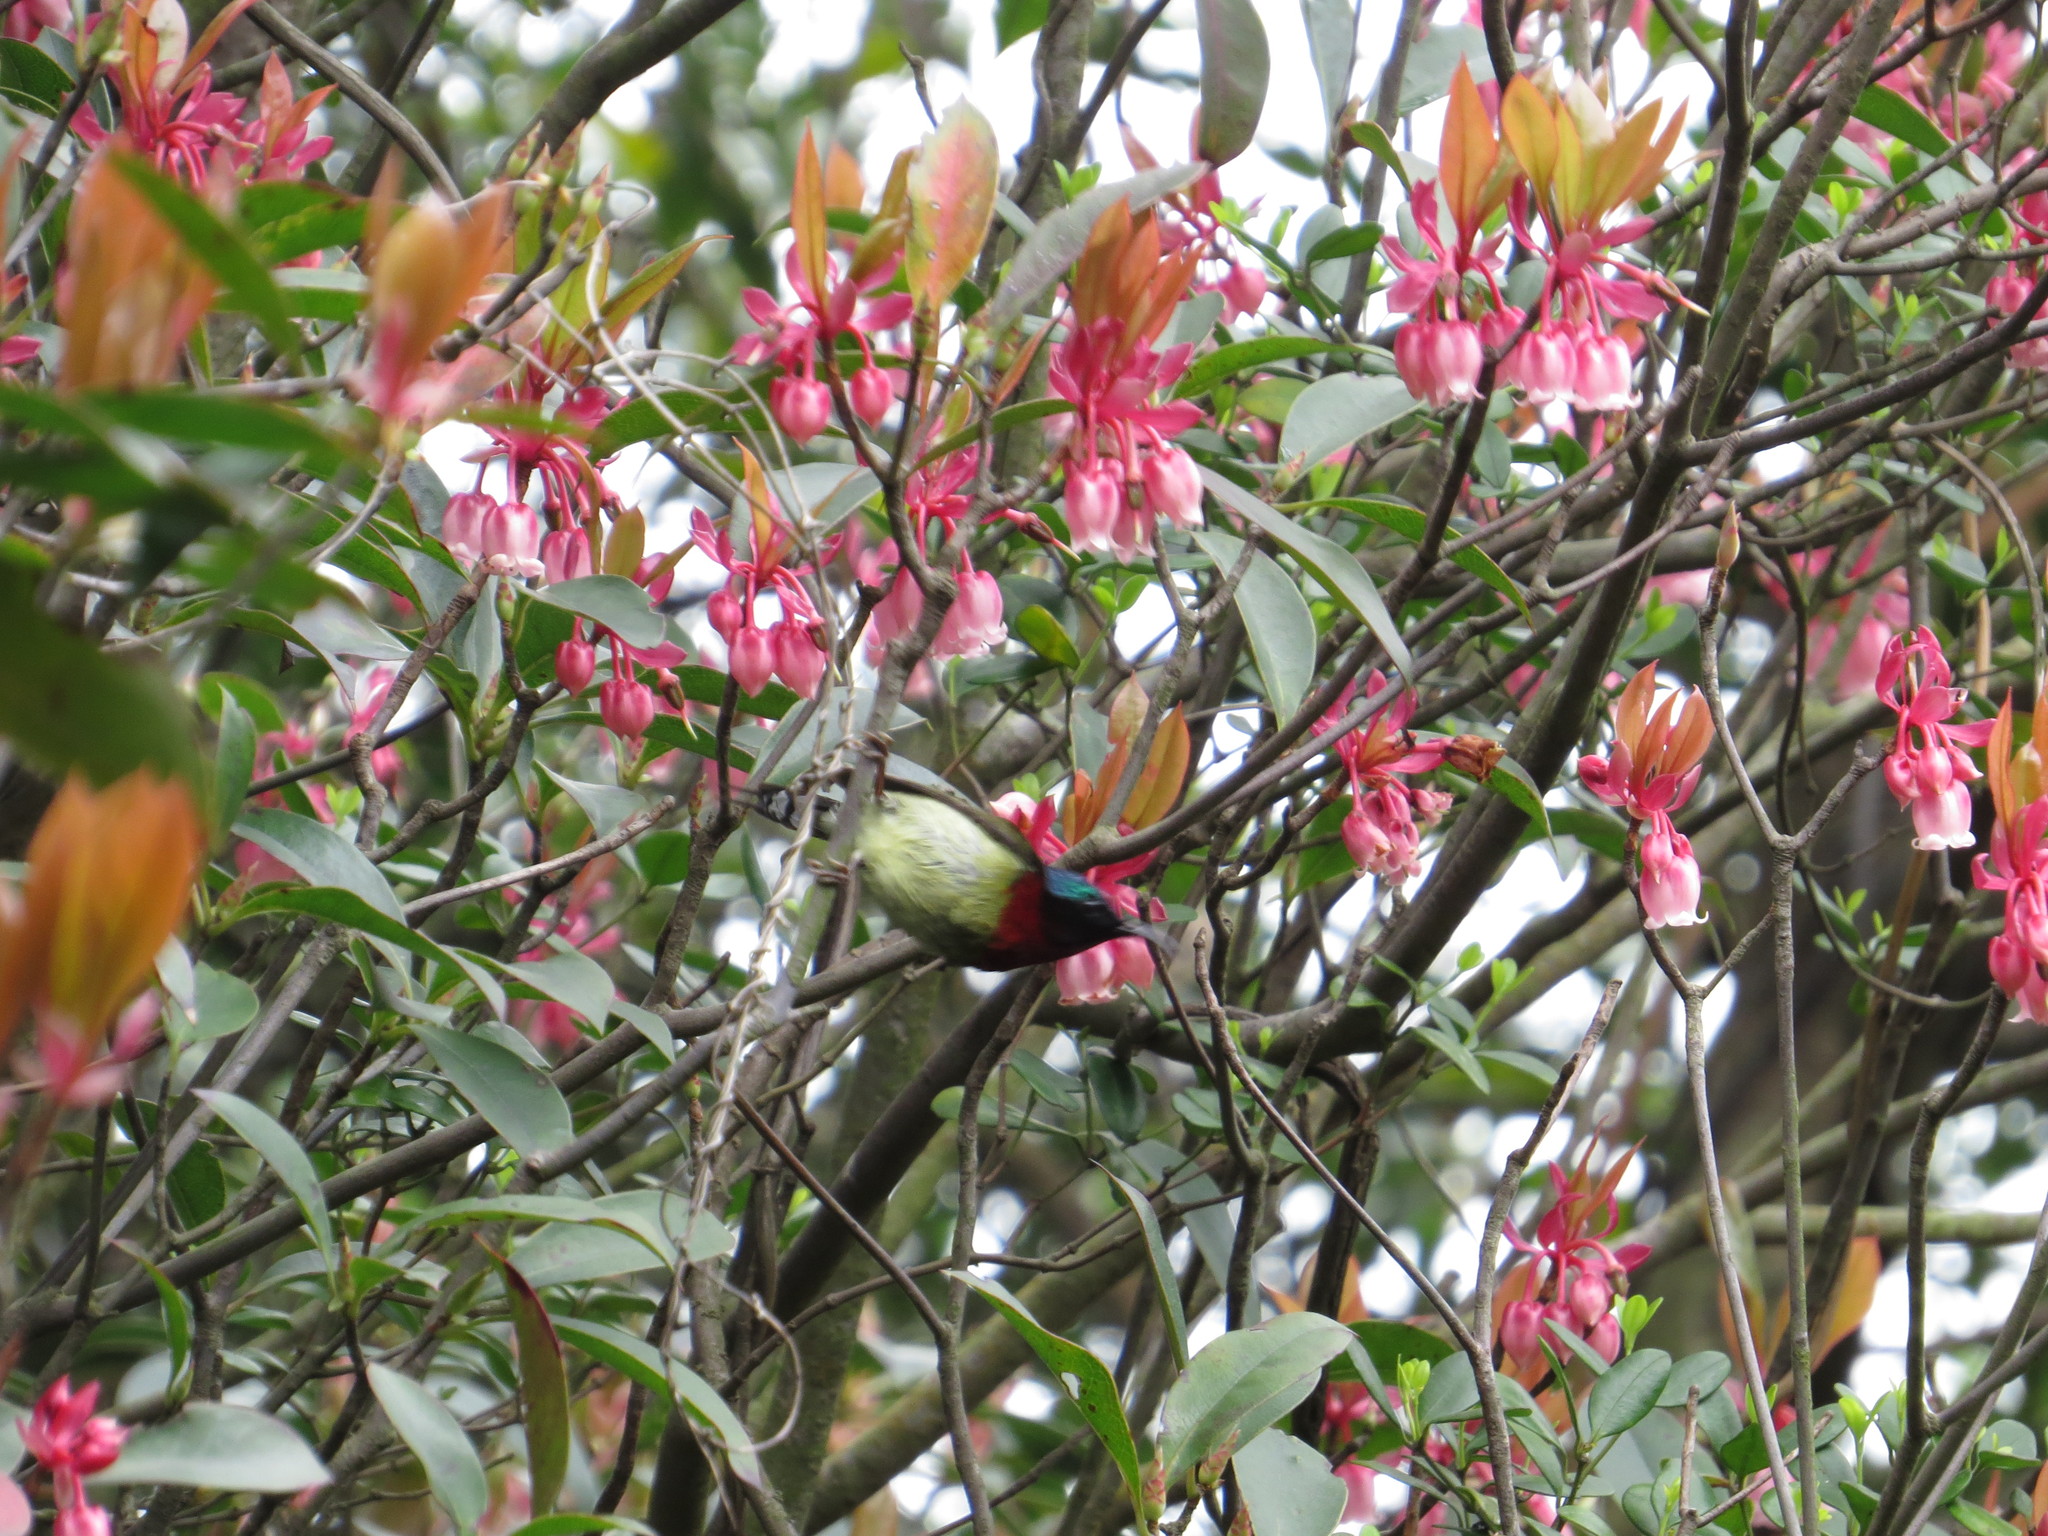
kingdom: Animalia
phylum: Chordata
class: Aves
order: Passeriformes
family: Nectariniidae
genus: Aethopyga
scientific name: Aethopyga christinae
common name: Fork-tailed sunbird
